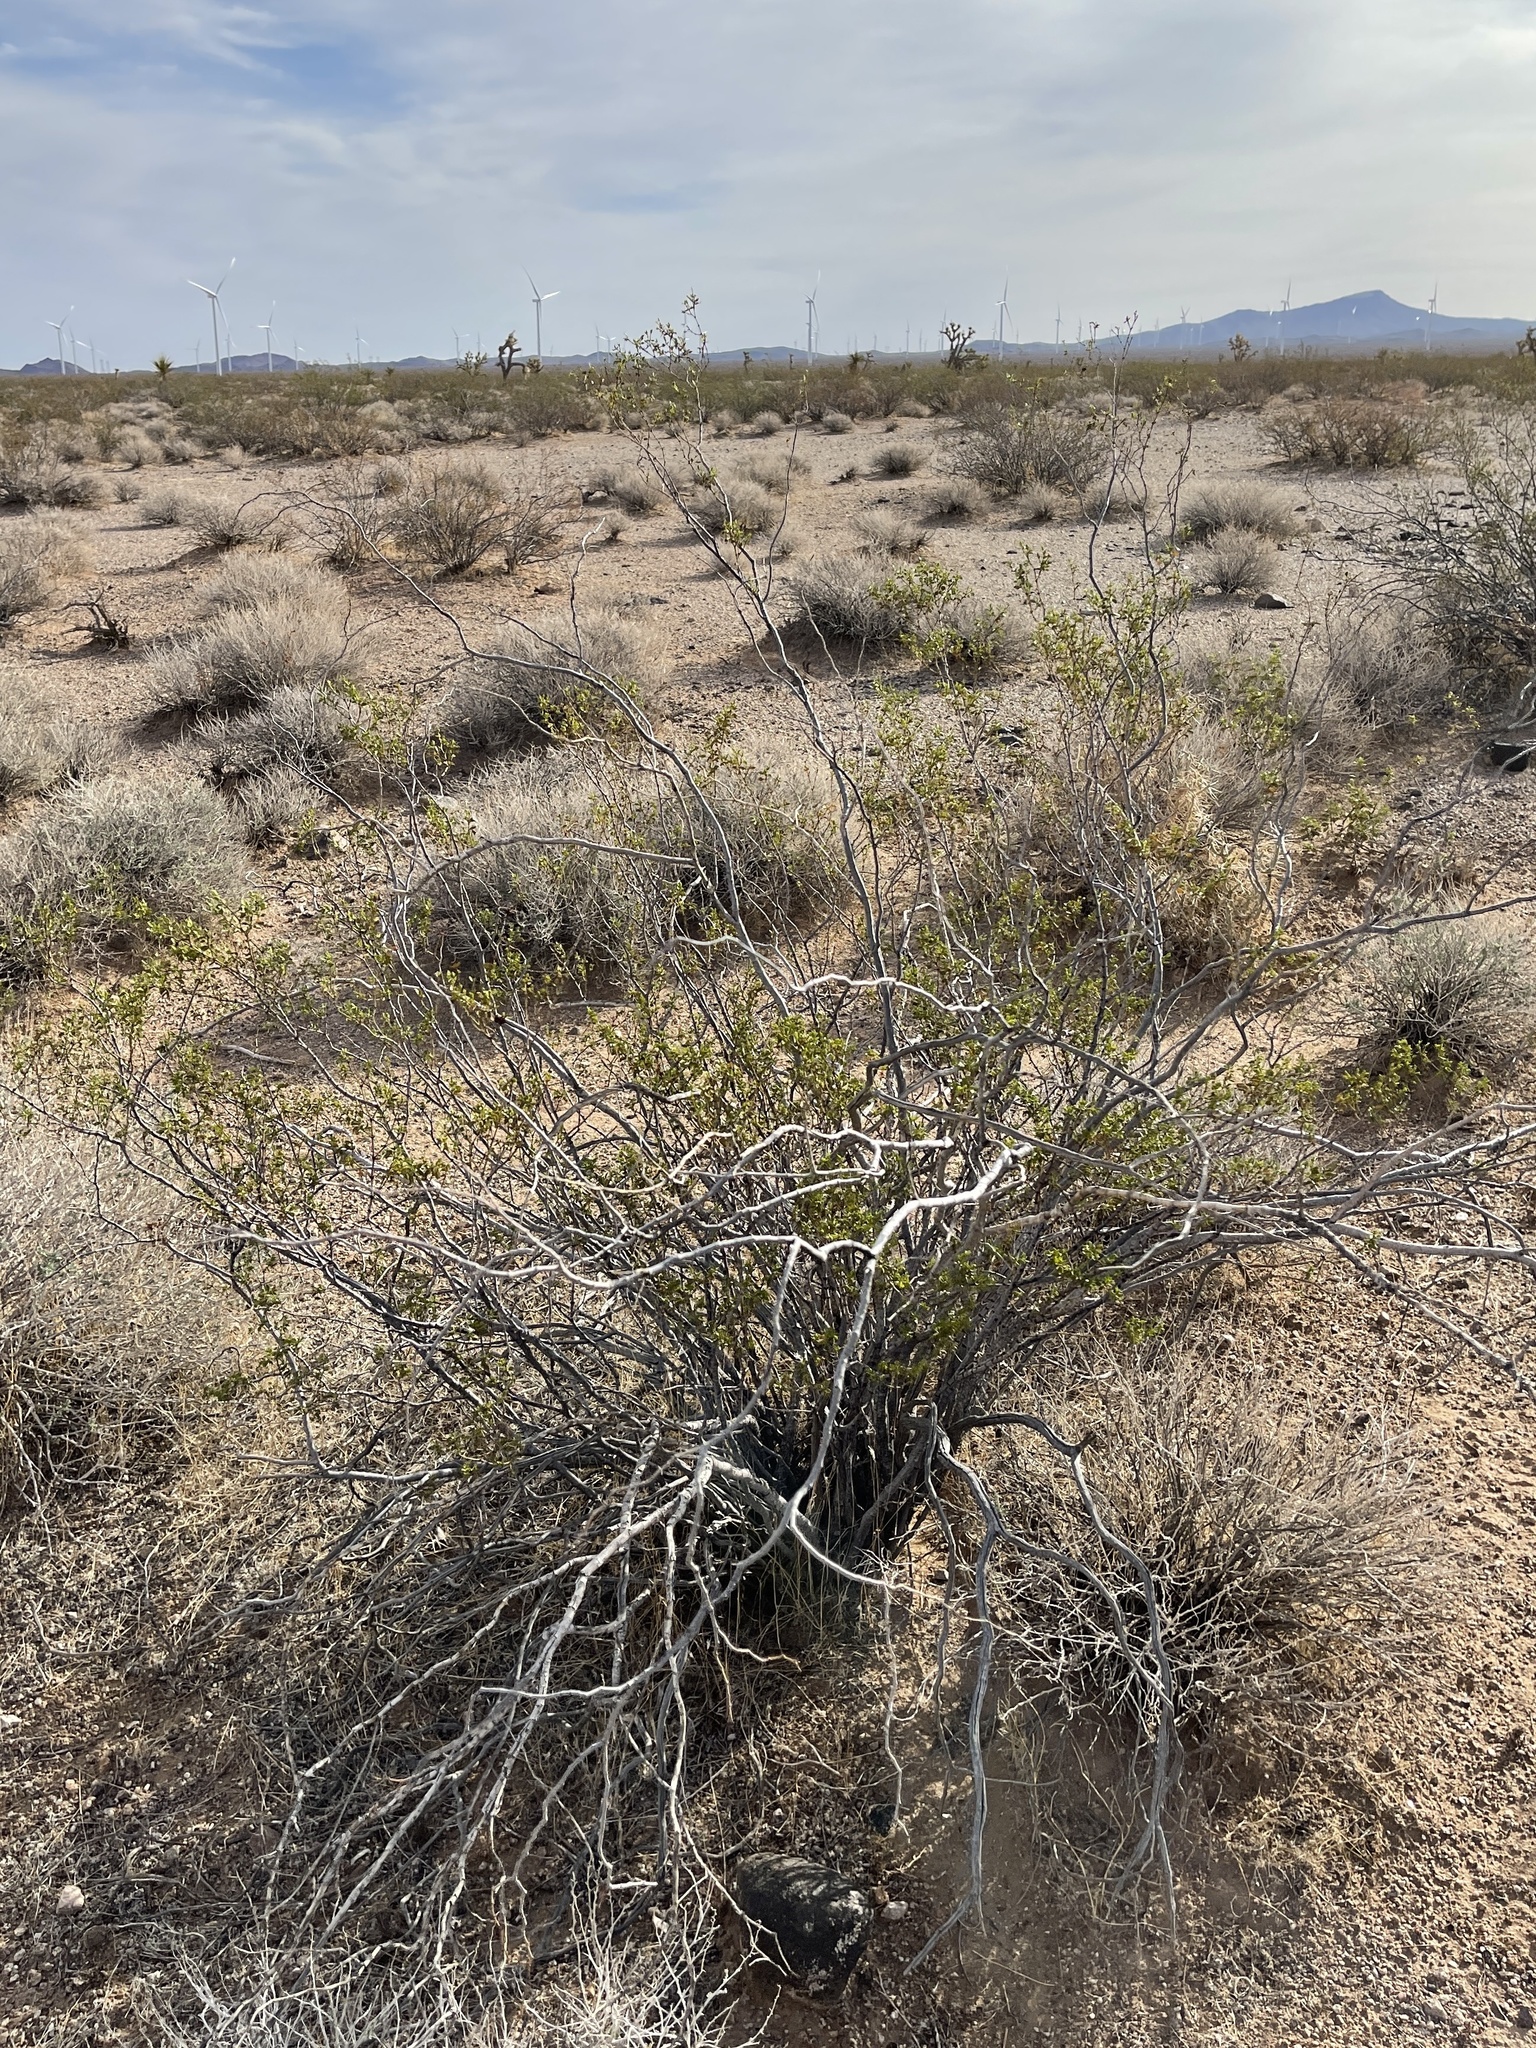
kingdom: Plantae
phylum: Tracheophyta
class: Magnoliopsida
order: Zygophyllales
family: Zygophyllaceae
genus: Larrea
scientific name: Larrea tridentata
